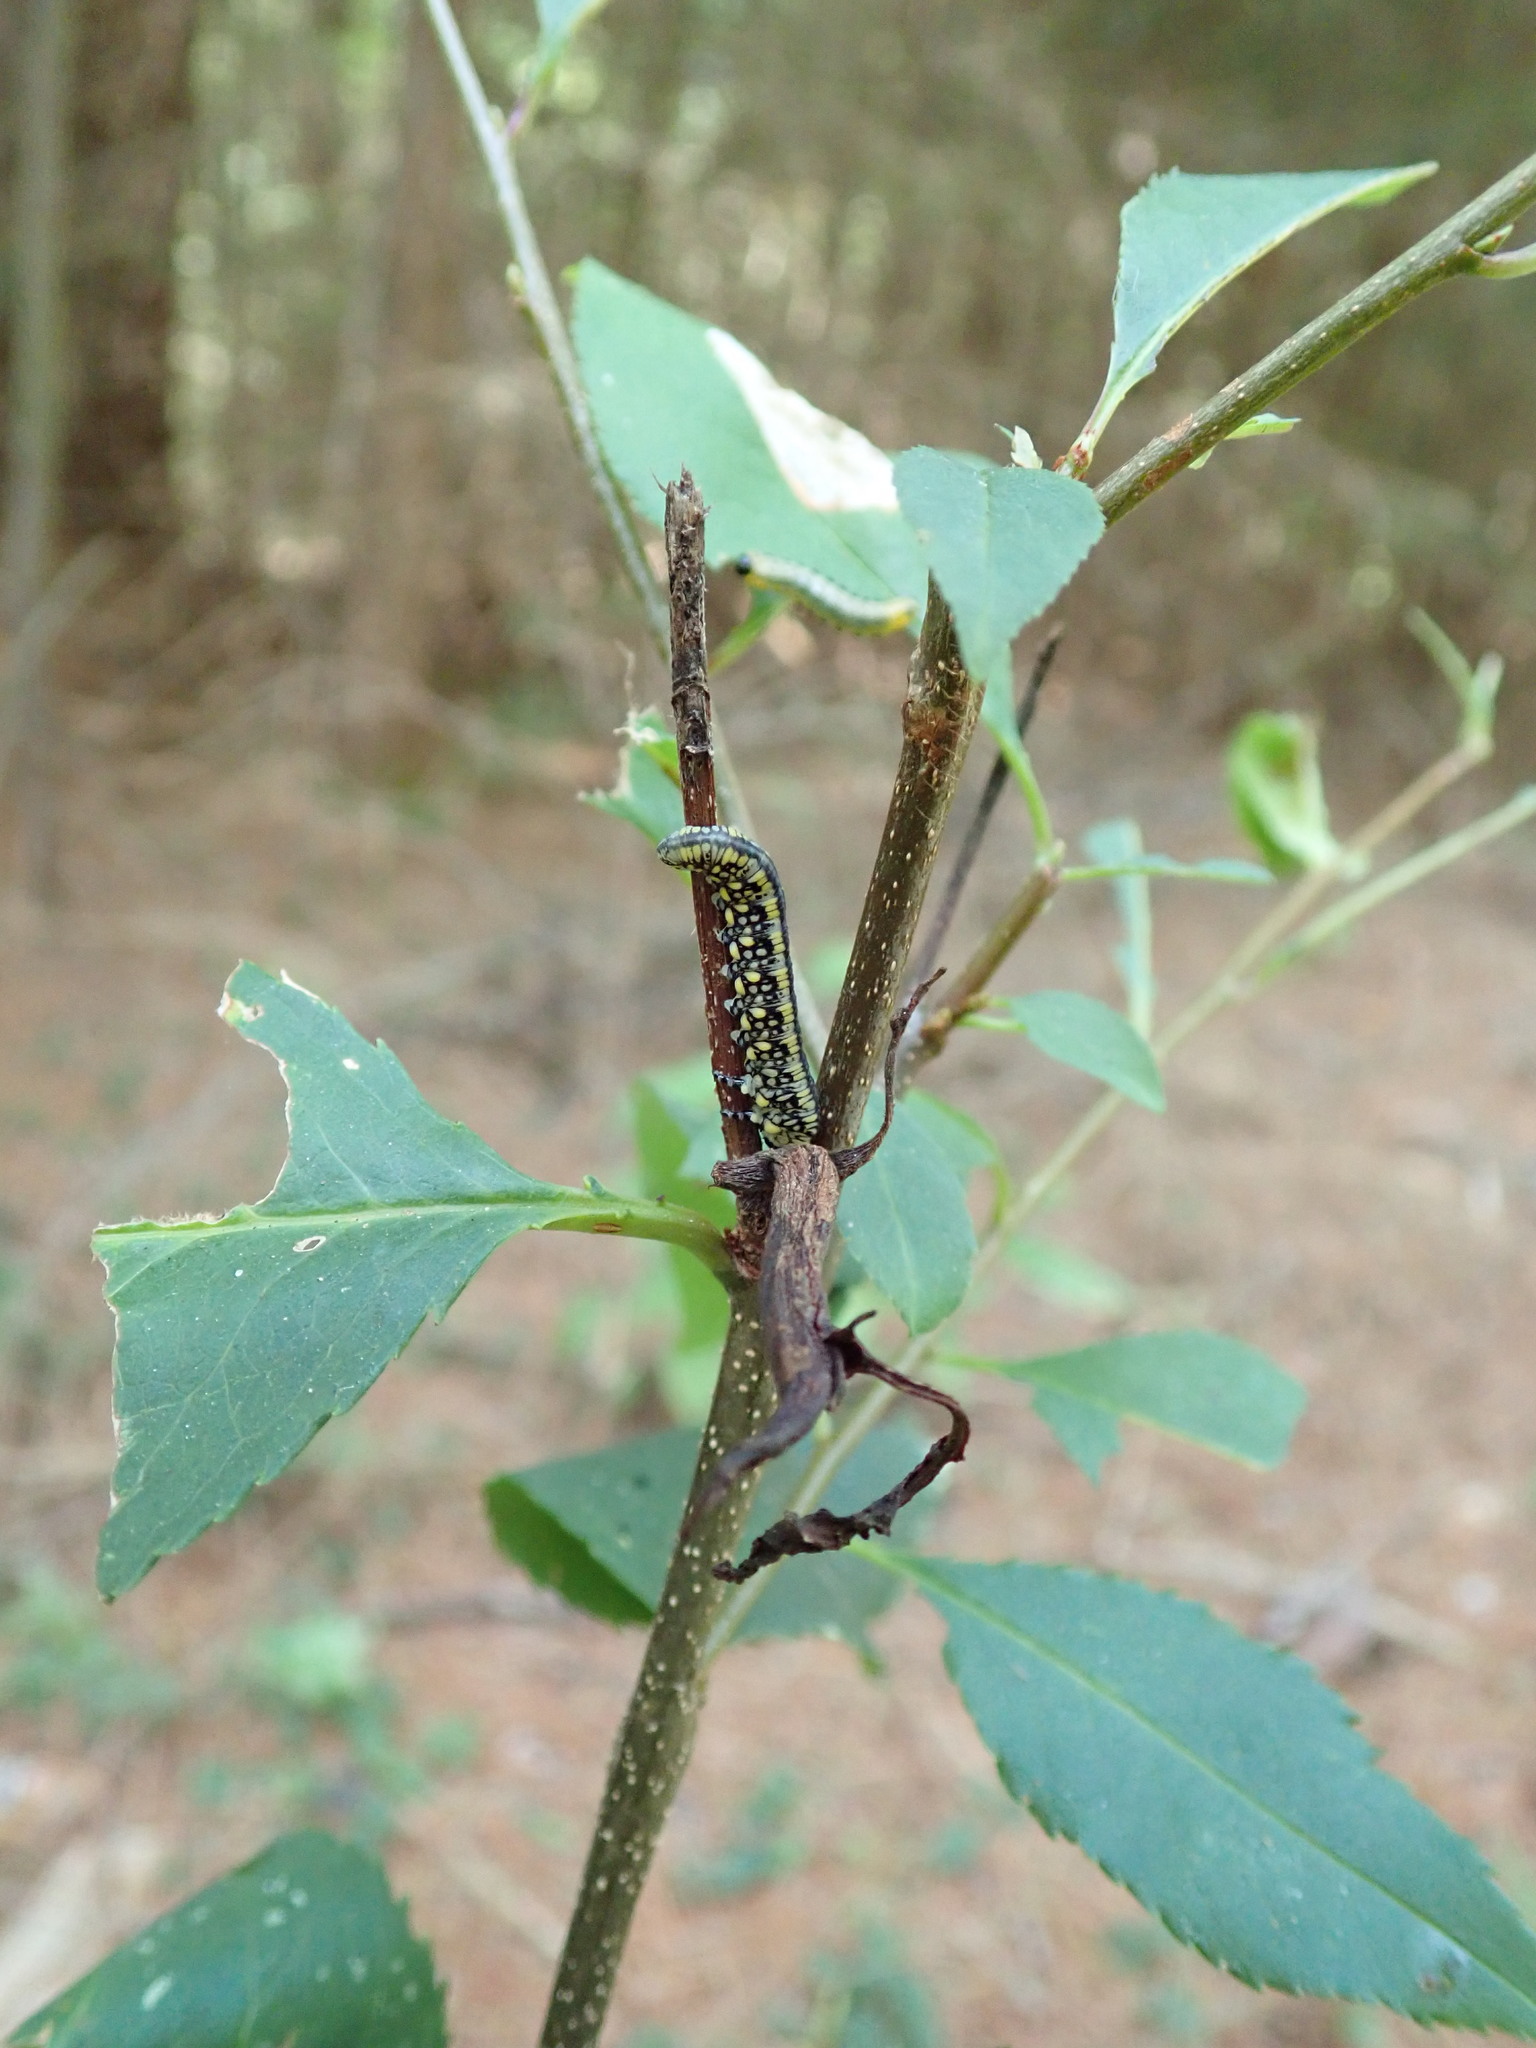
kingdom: Animalia
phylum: Arthropoda
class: Insecta
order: Hymenoptera
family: Diprionidae
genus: Diprion
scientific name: Diprion similis
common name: Pine sawfly
